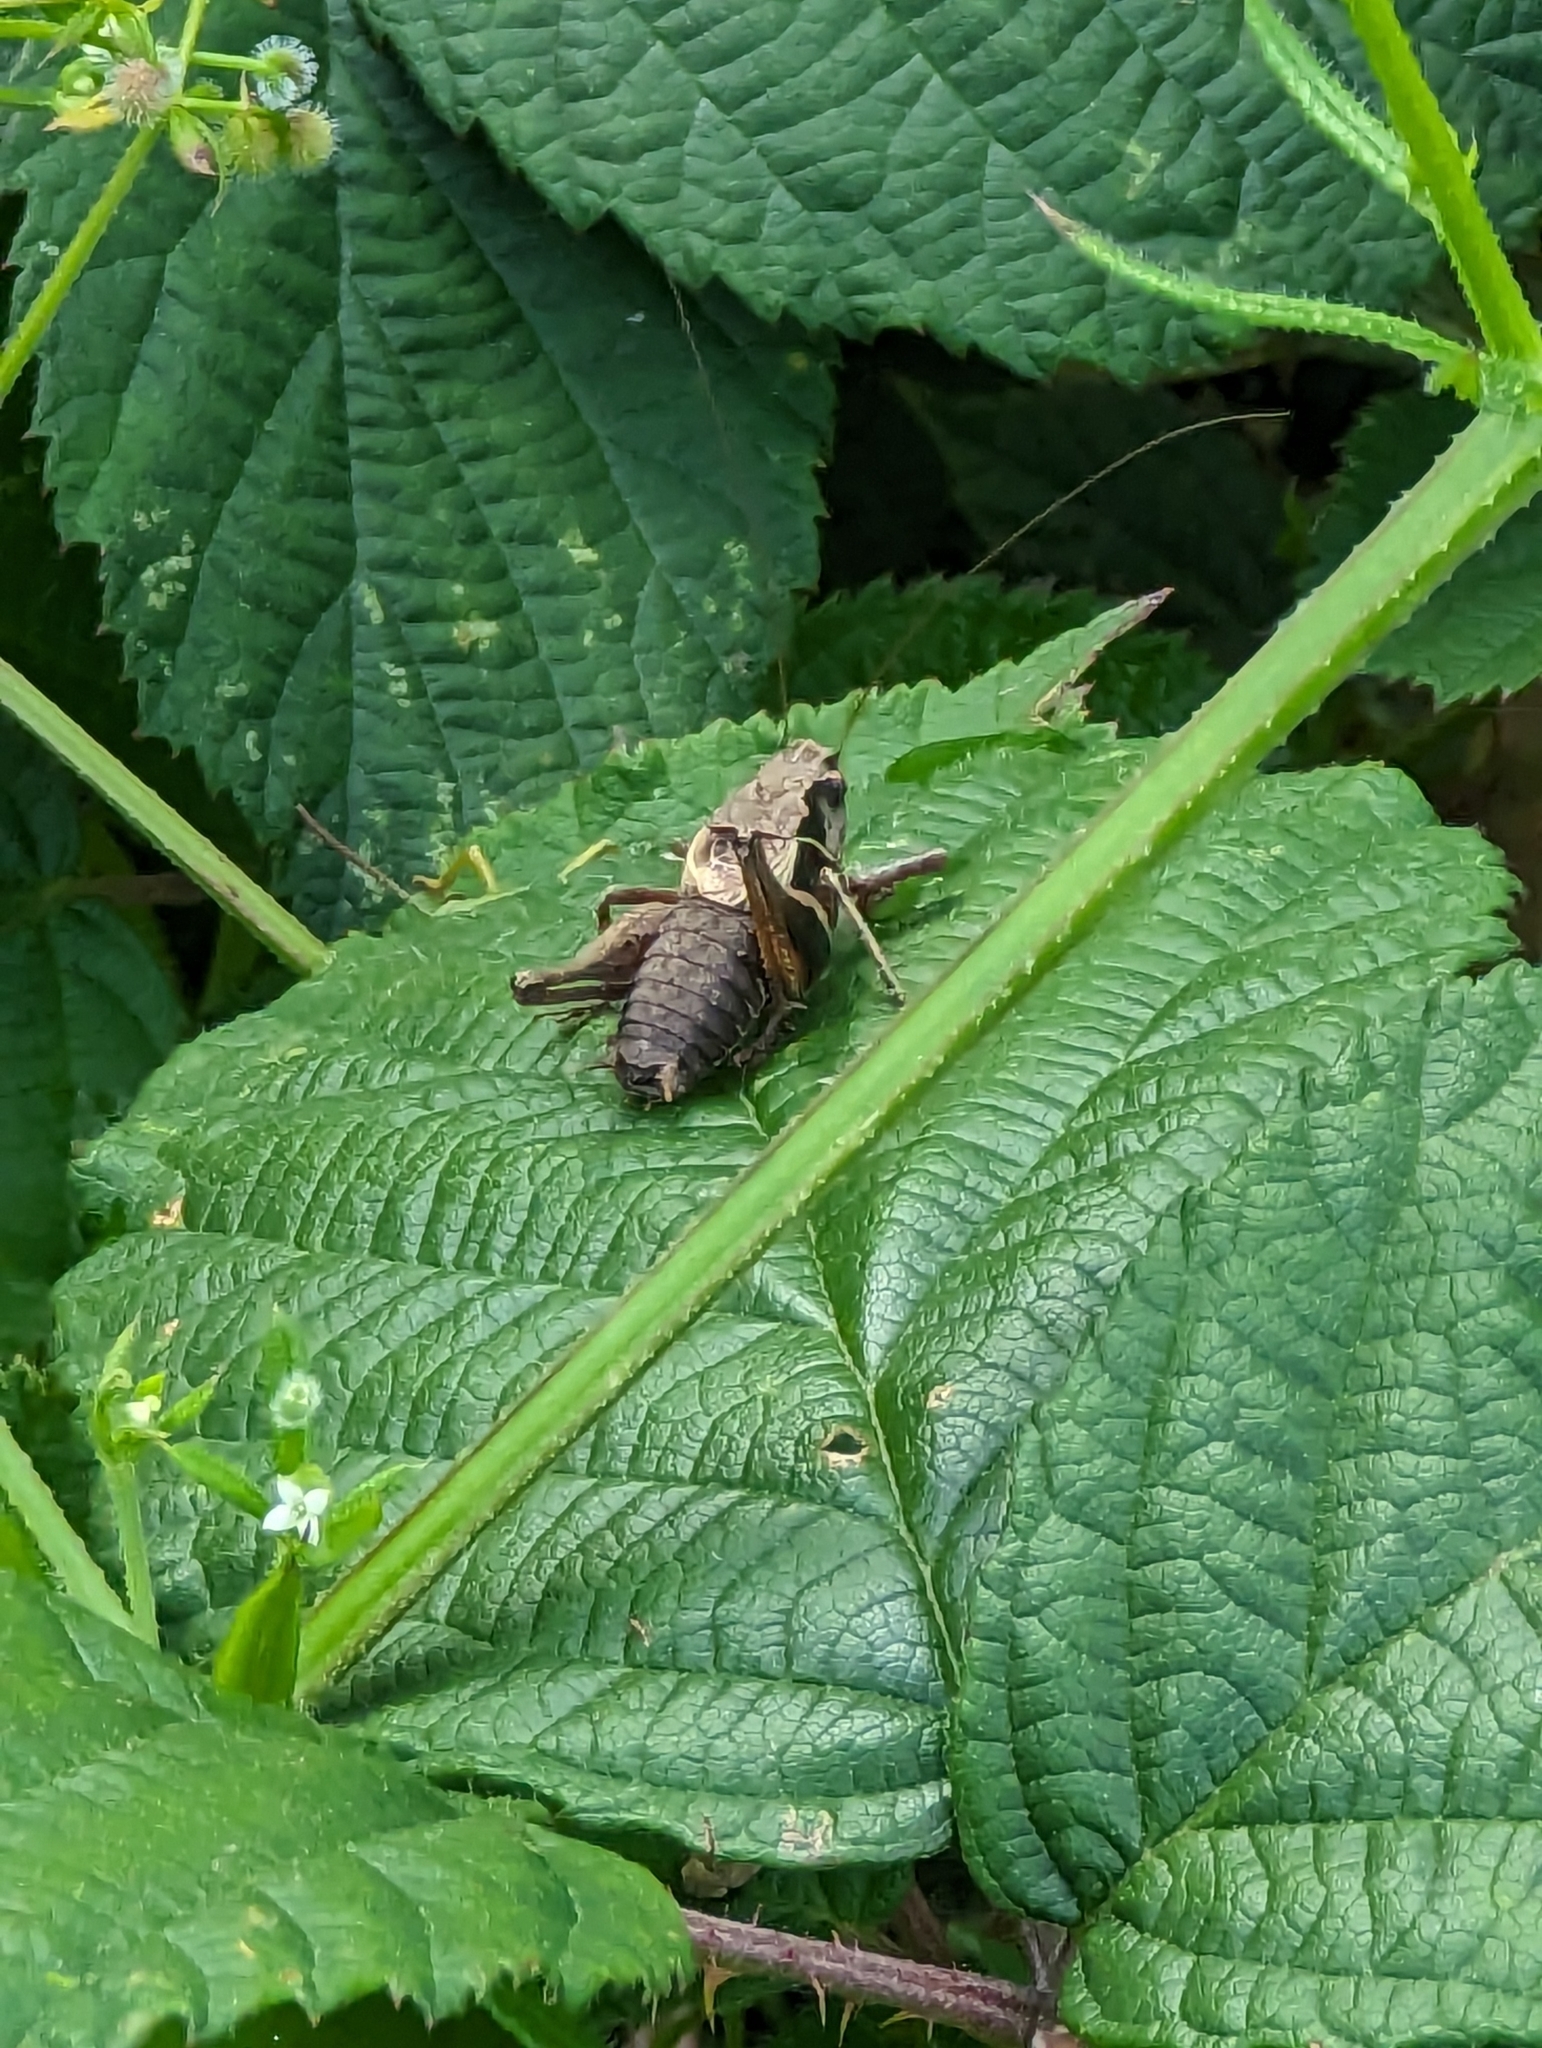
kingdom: Animalia
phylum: Arthropoda
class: Insecta
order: Orthoptera
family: Tettigoniidae
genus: Pholidoptera
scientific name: Pholidoptera griseoaptera
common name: Dark bush-cricket
